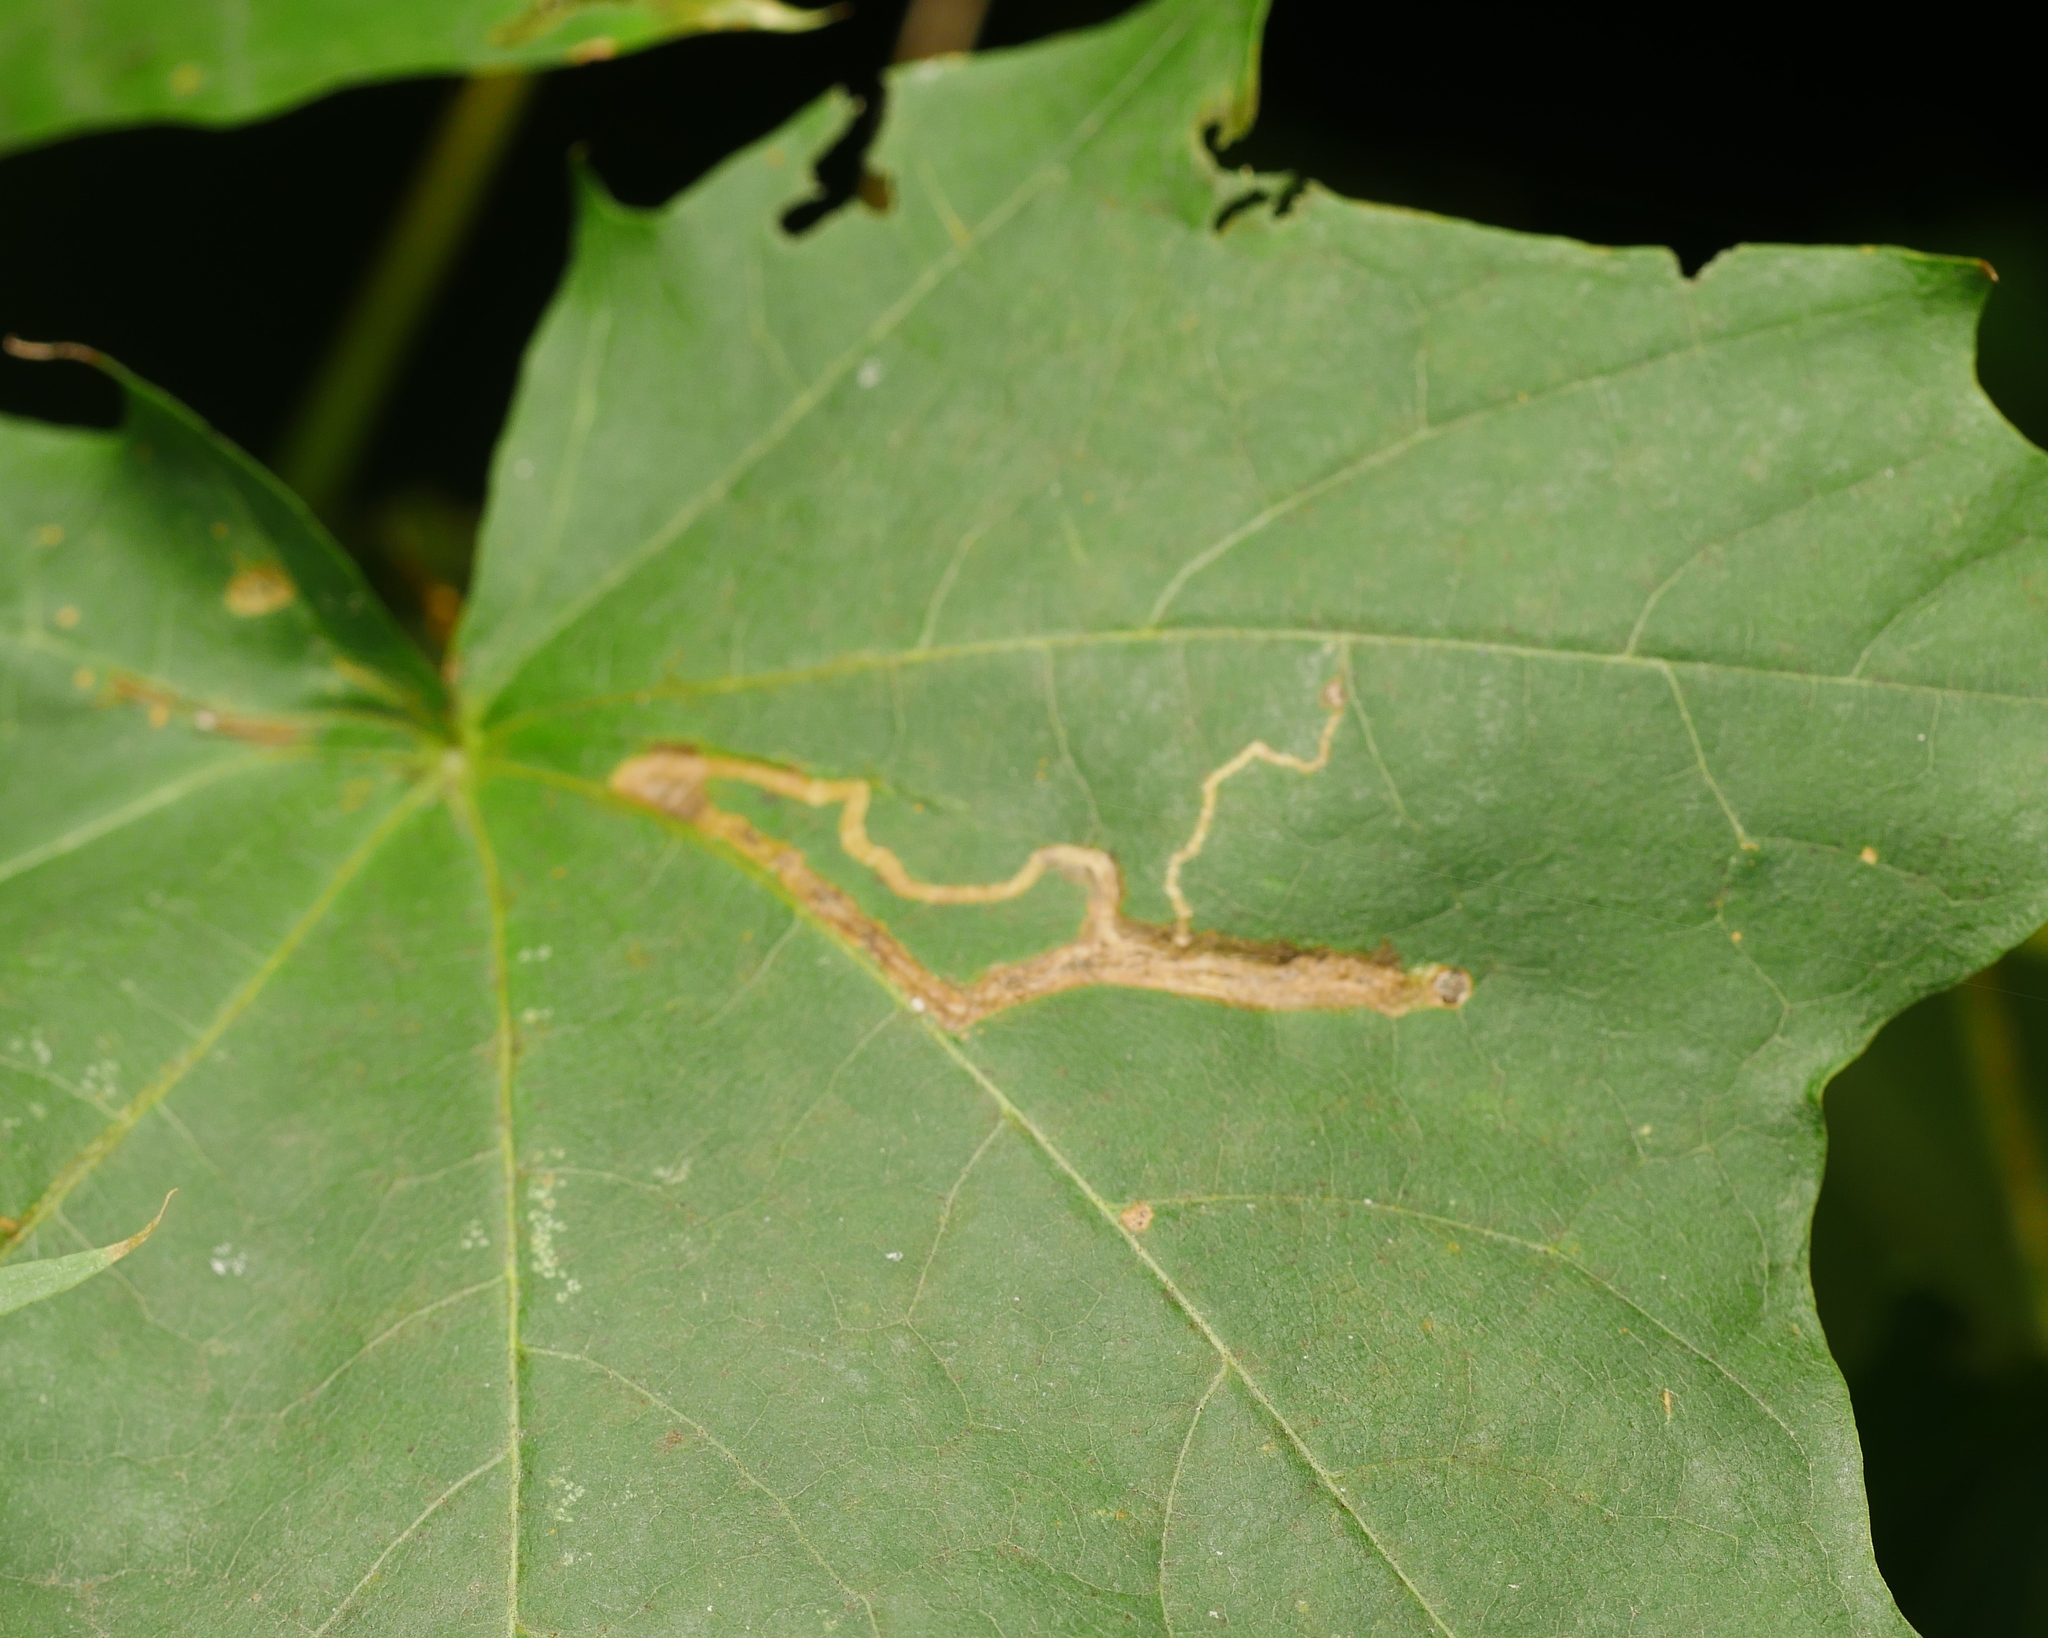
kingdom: Animalia
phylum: Arthropoda
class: Insecta
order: Lepidoptera
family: Nepticulidae
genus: Stigmella
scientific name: Stigmella aceris
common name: Scarce maple pigmy
